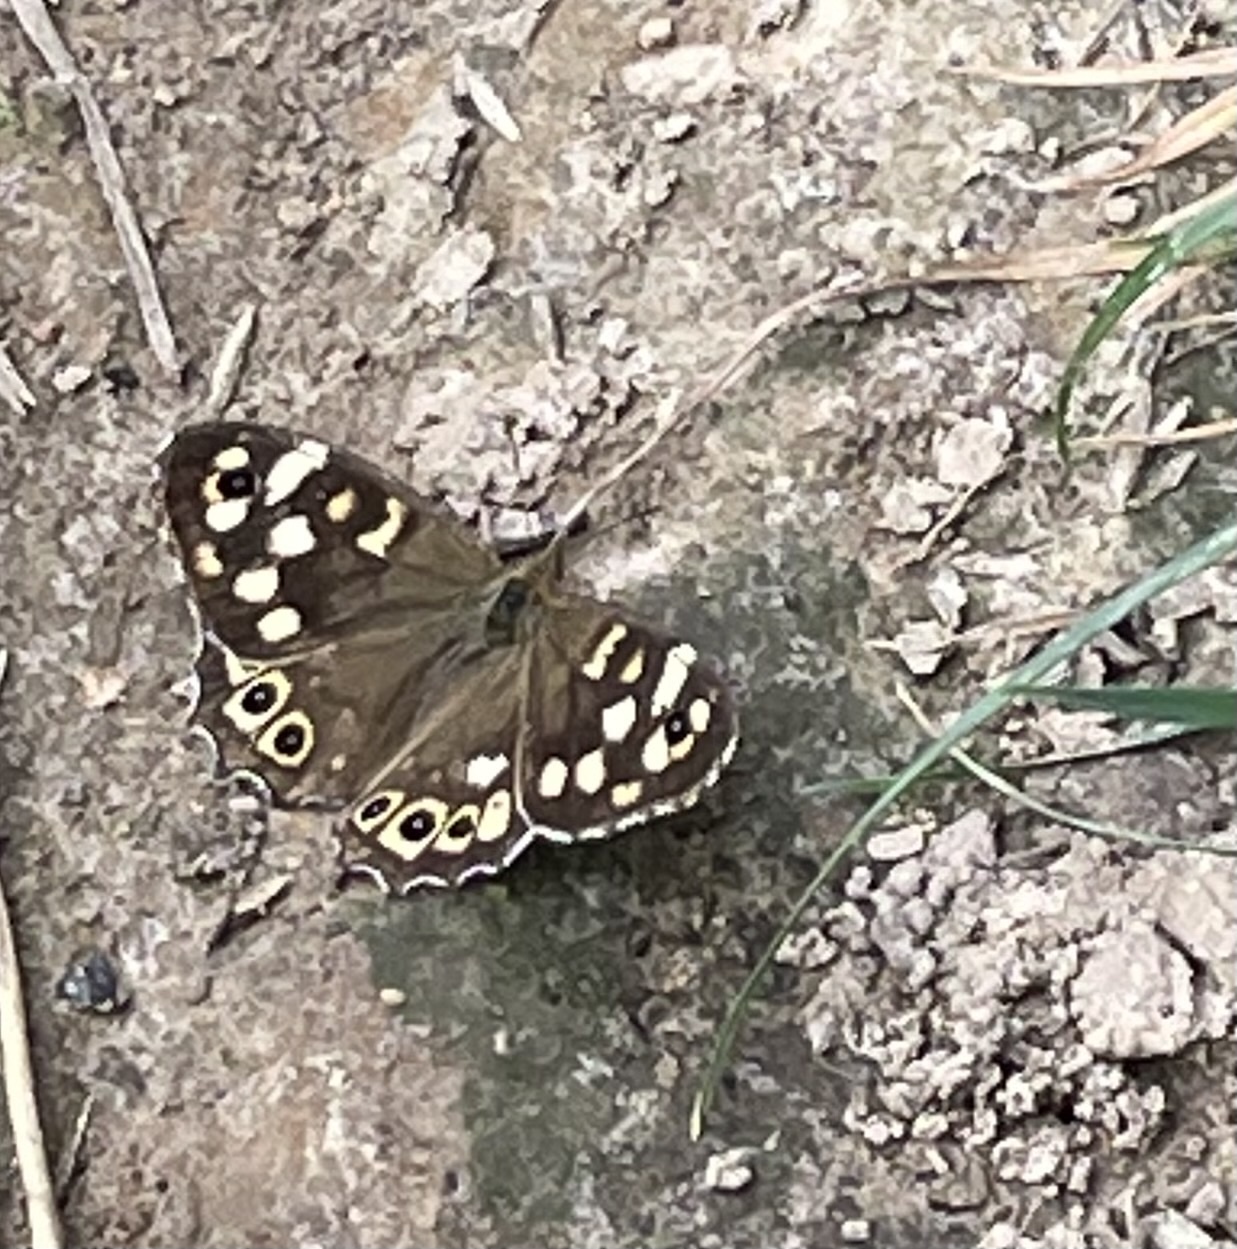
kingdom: Animalia
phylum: Arthropoda
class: Insecta
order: Lepidoptera
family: Nymphalidae
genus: Pararge
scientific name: Pararge aegeria
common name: Speckled wood
